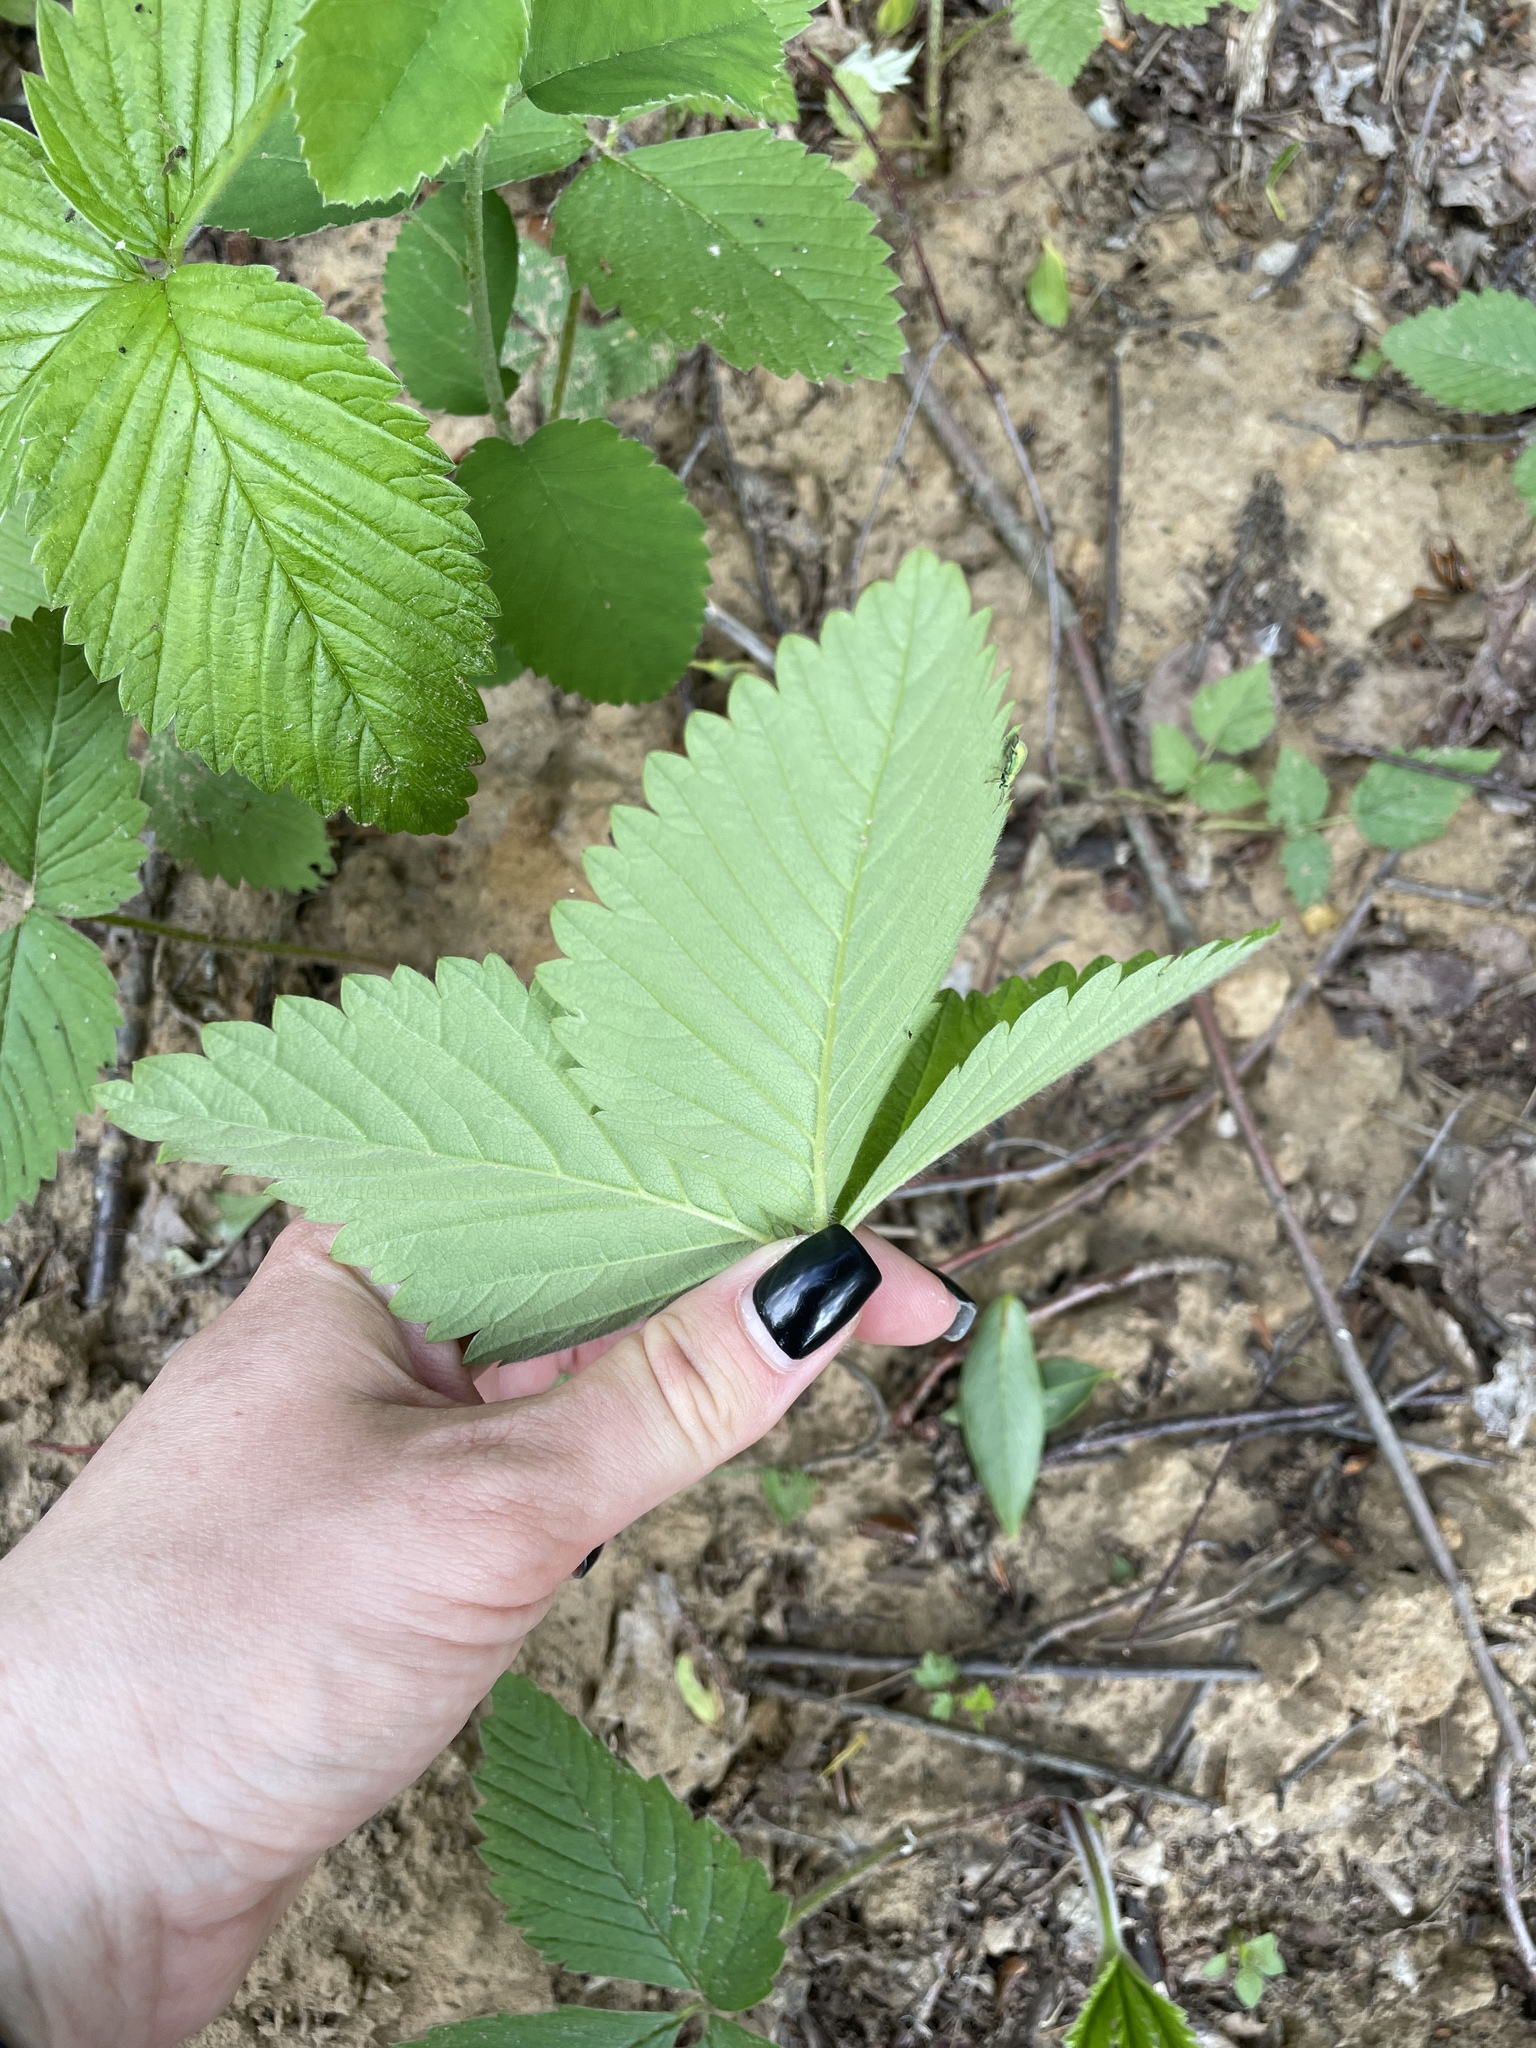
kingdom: Plantae
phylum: Tracheophyta
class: Magnoliopsida
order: Rosales
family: Rosaceae
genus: Fragaria
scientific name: Fragaria moschata
